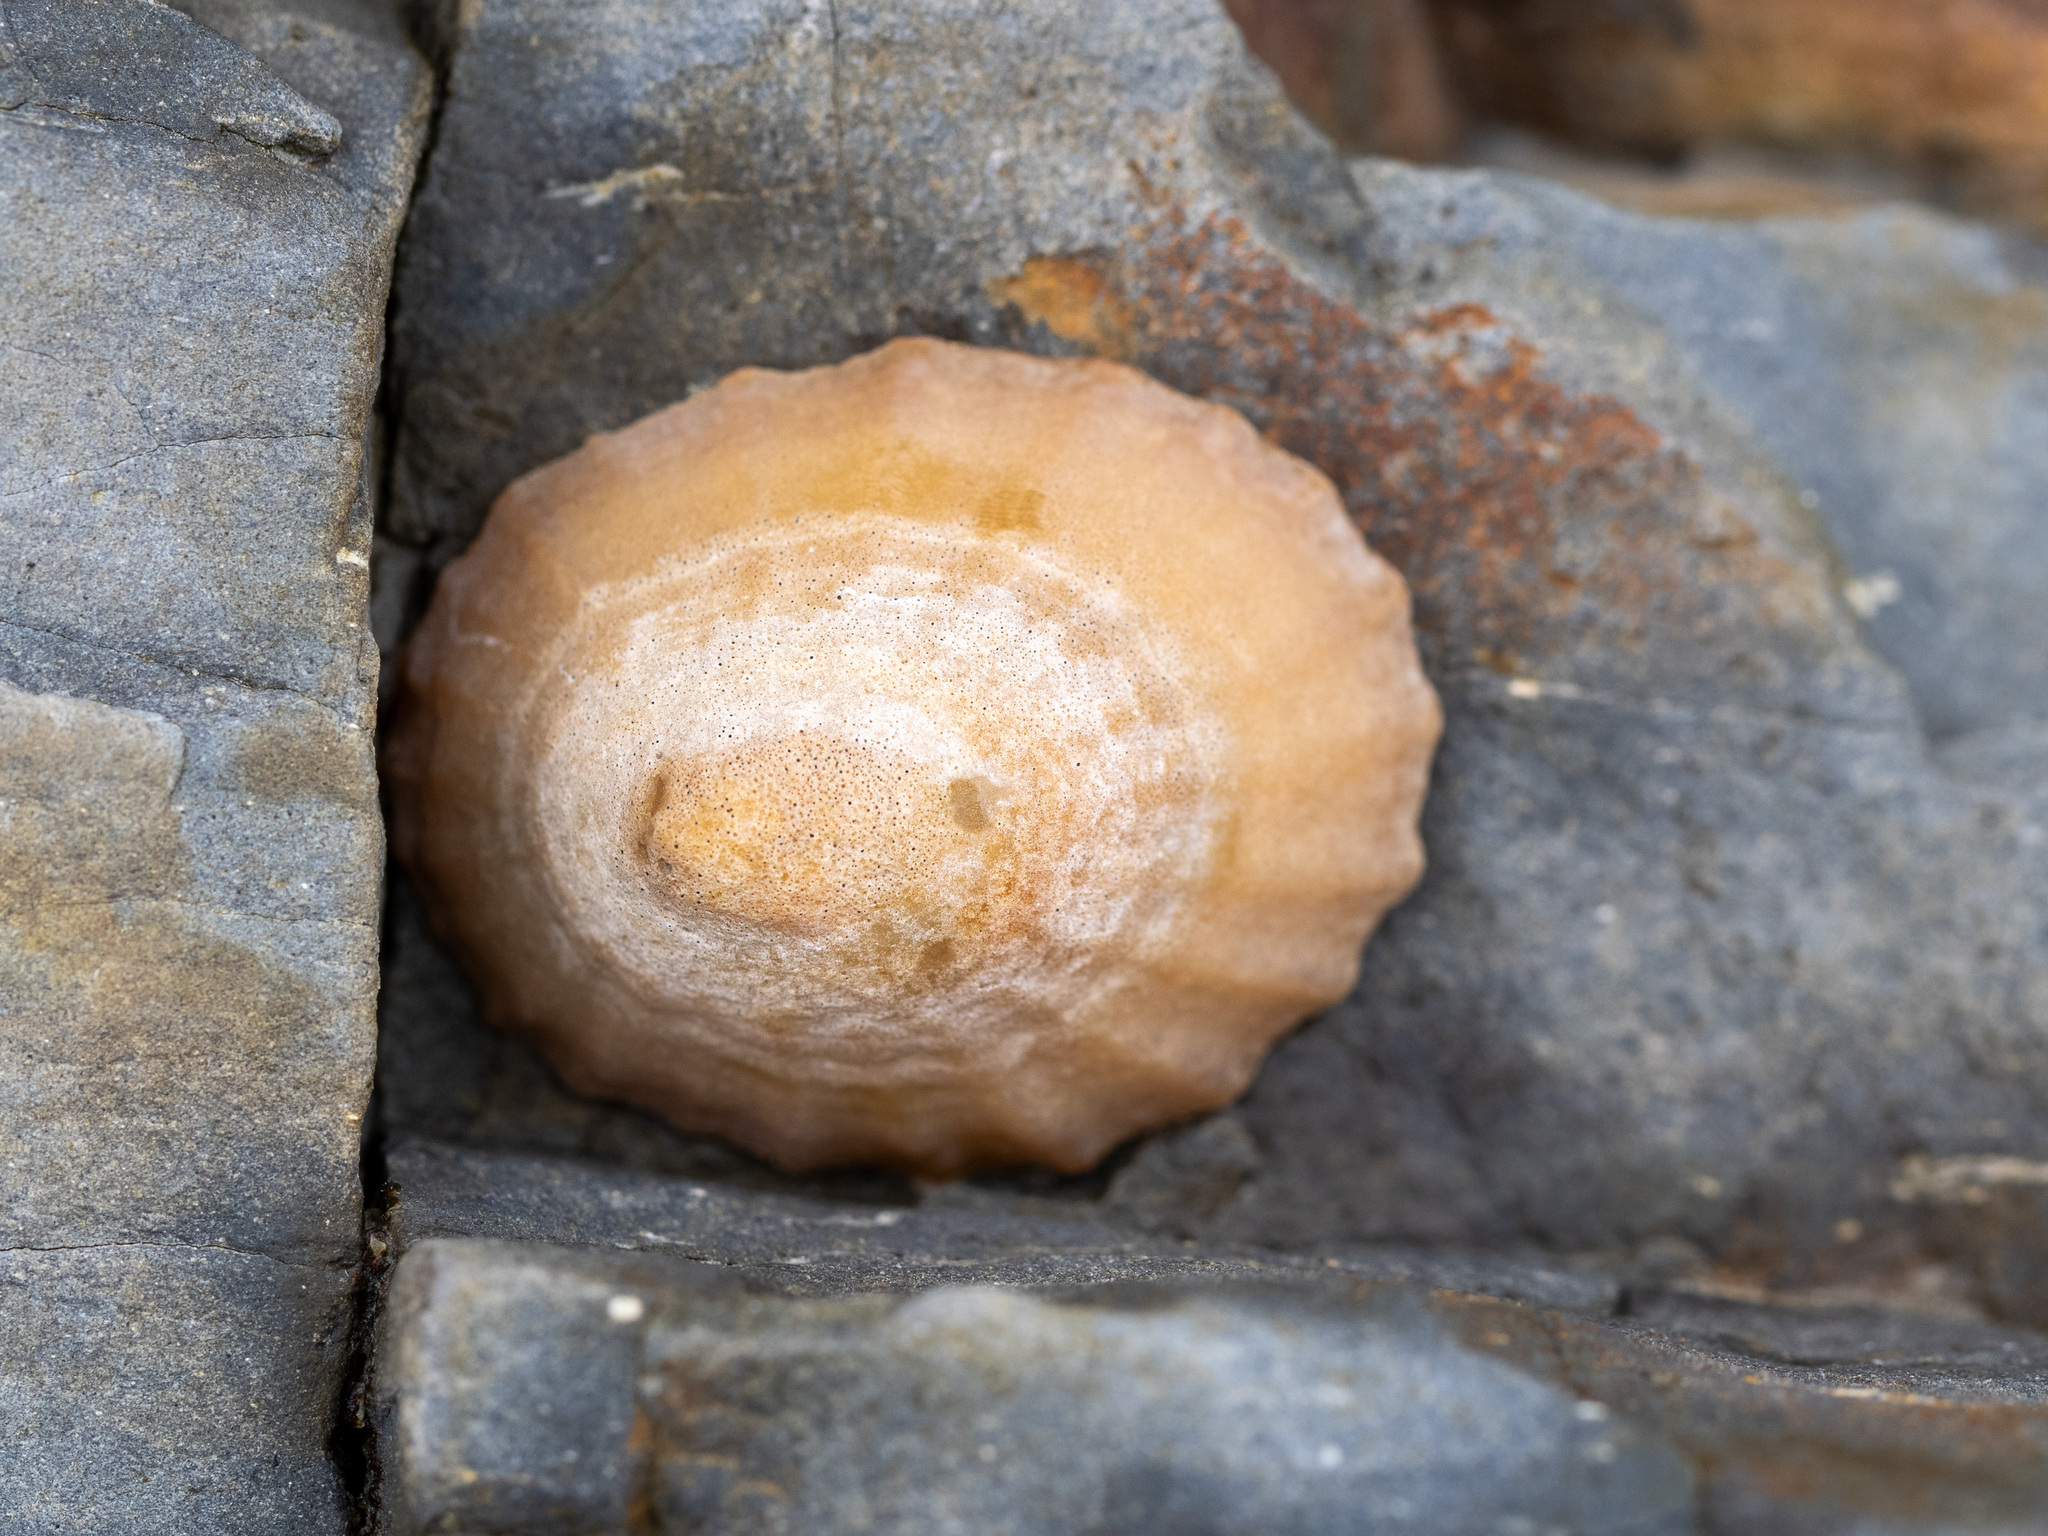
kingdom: Animalia
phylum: Mollusca
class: Gastropoda
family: Nacellidae
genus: Cellana
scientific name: Cellana flava
